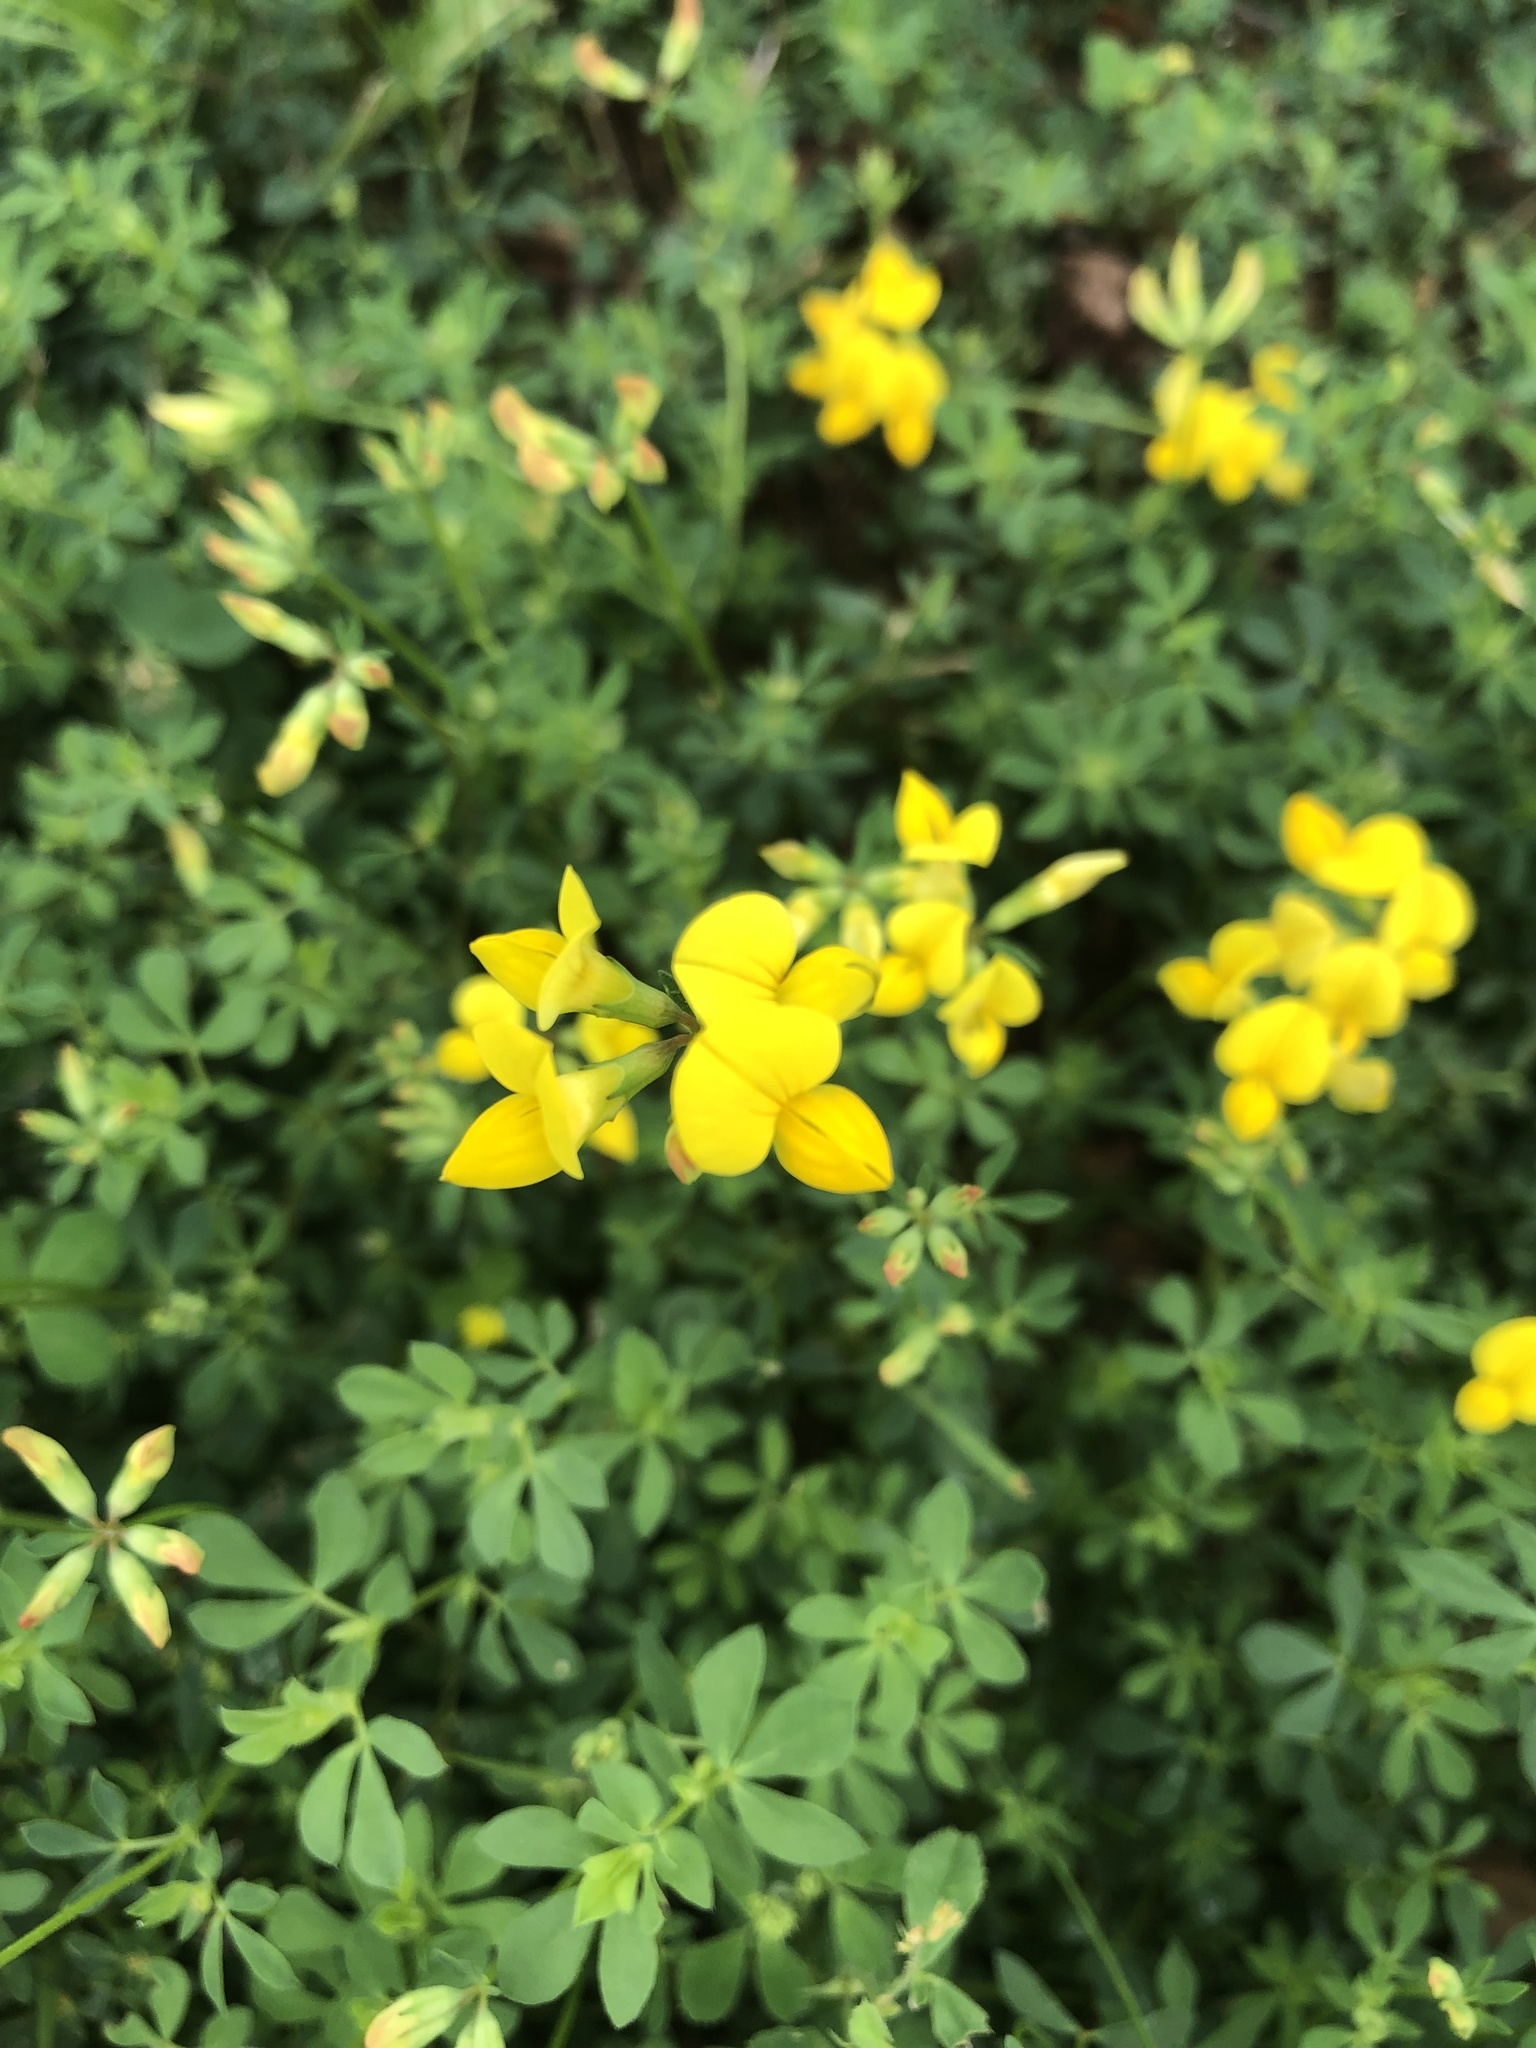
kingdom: Plantae
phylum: Tracheophyta
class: Magnoliopsida
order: Fabales
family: Fabaceae
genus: Lotus
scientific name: Lotus corniculatus
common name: Common bird's-foot-trefoil
